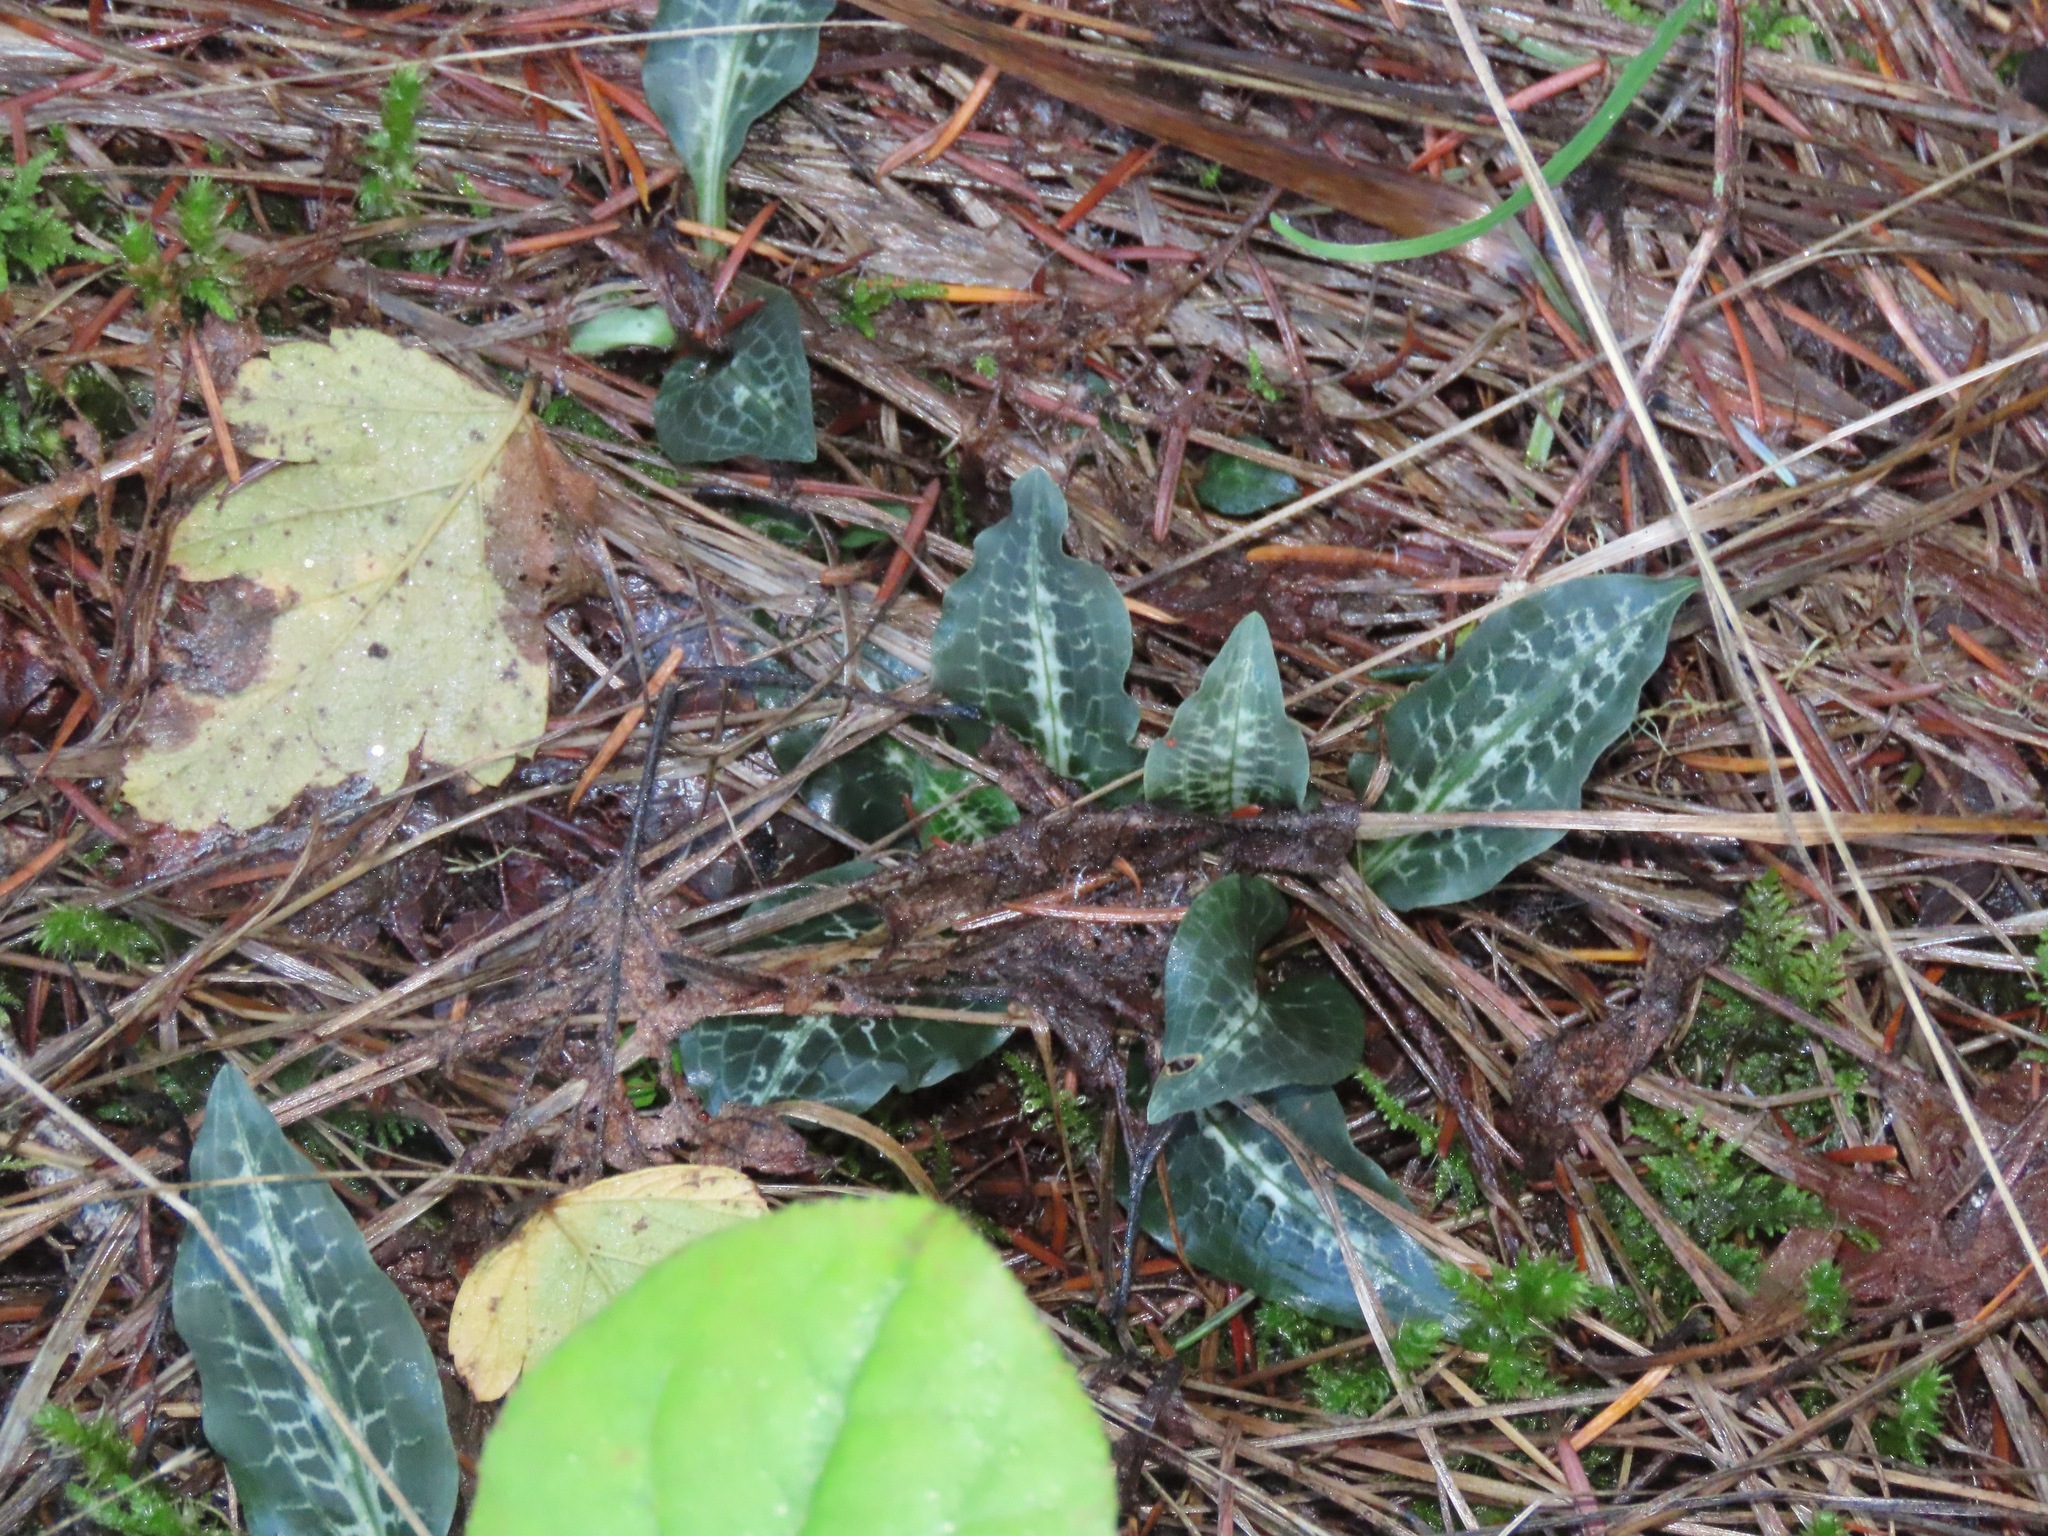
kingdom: Plantae
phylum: Tracheophyta
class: Liliopsida
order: Asparagales
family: Orchidaceae
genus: Goodyera
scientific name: Goodyera oblongifolia
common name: Giant rattlesnake-plantain
